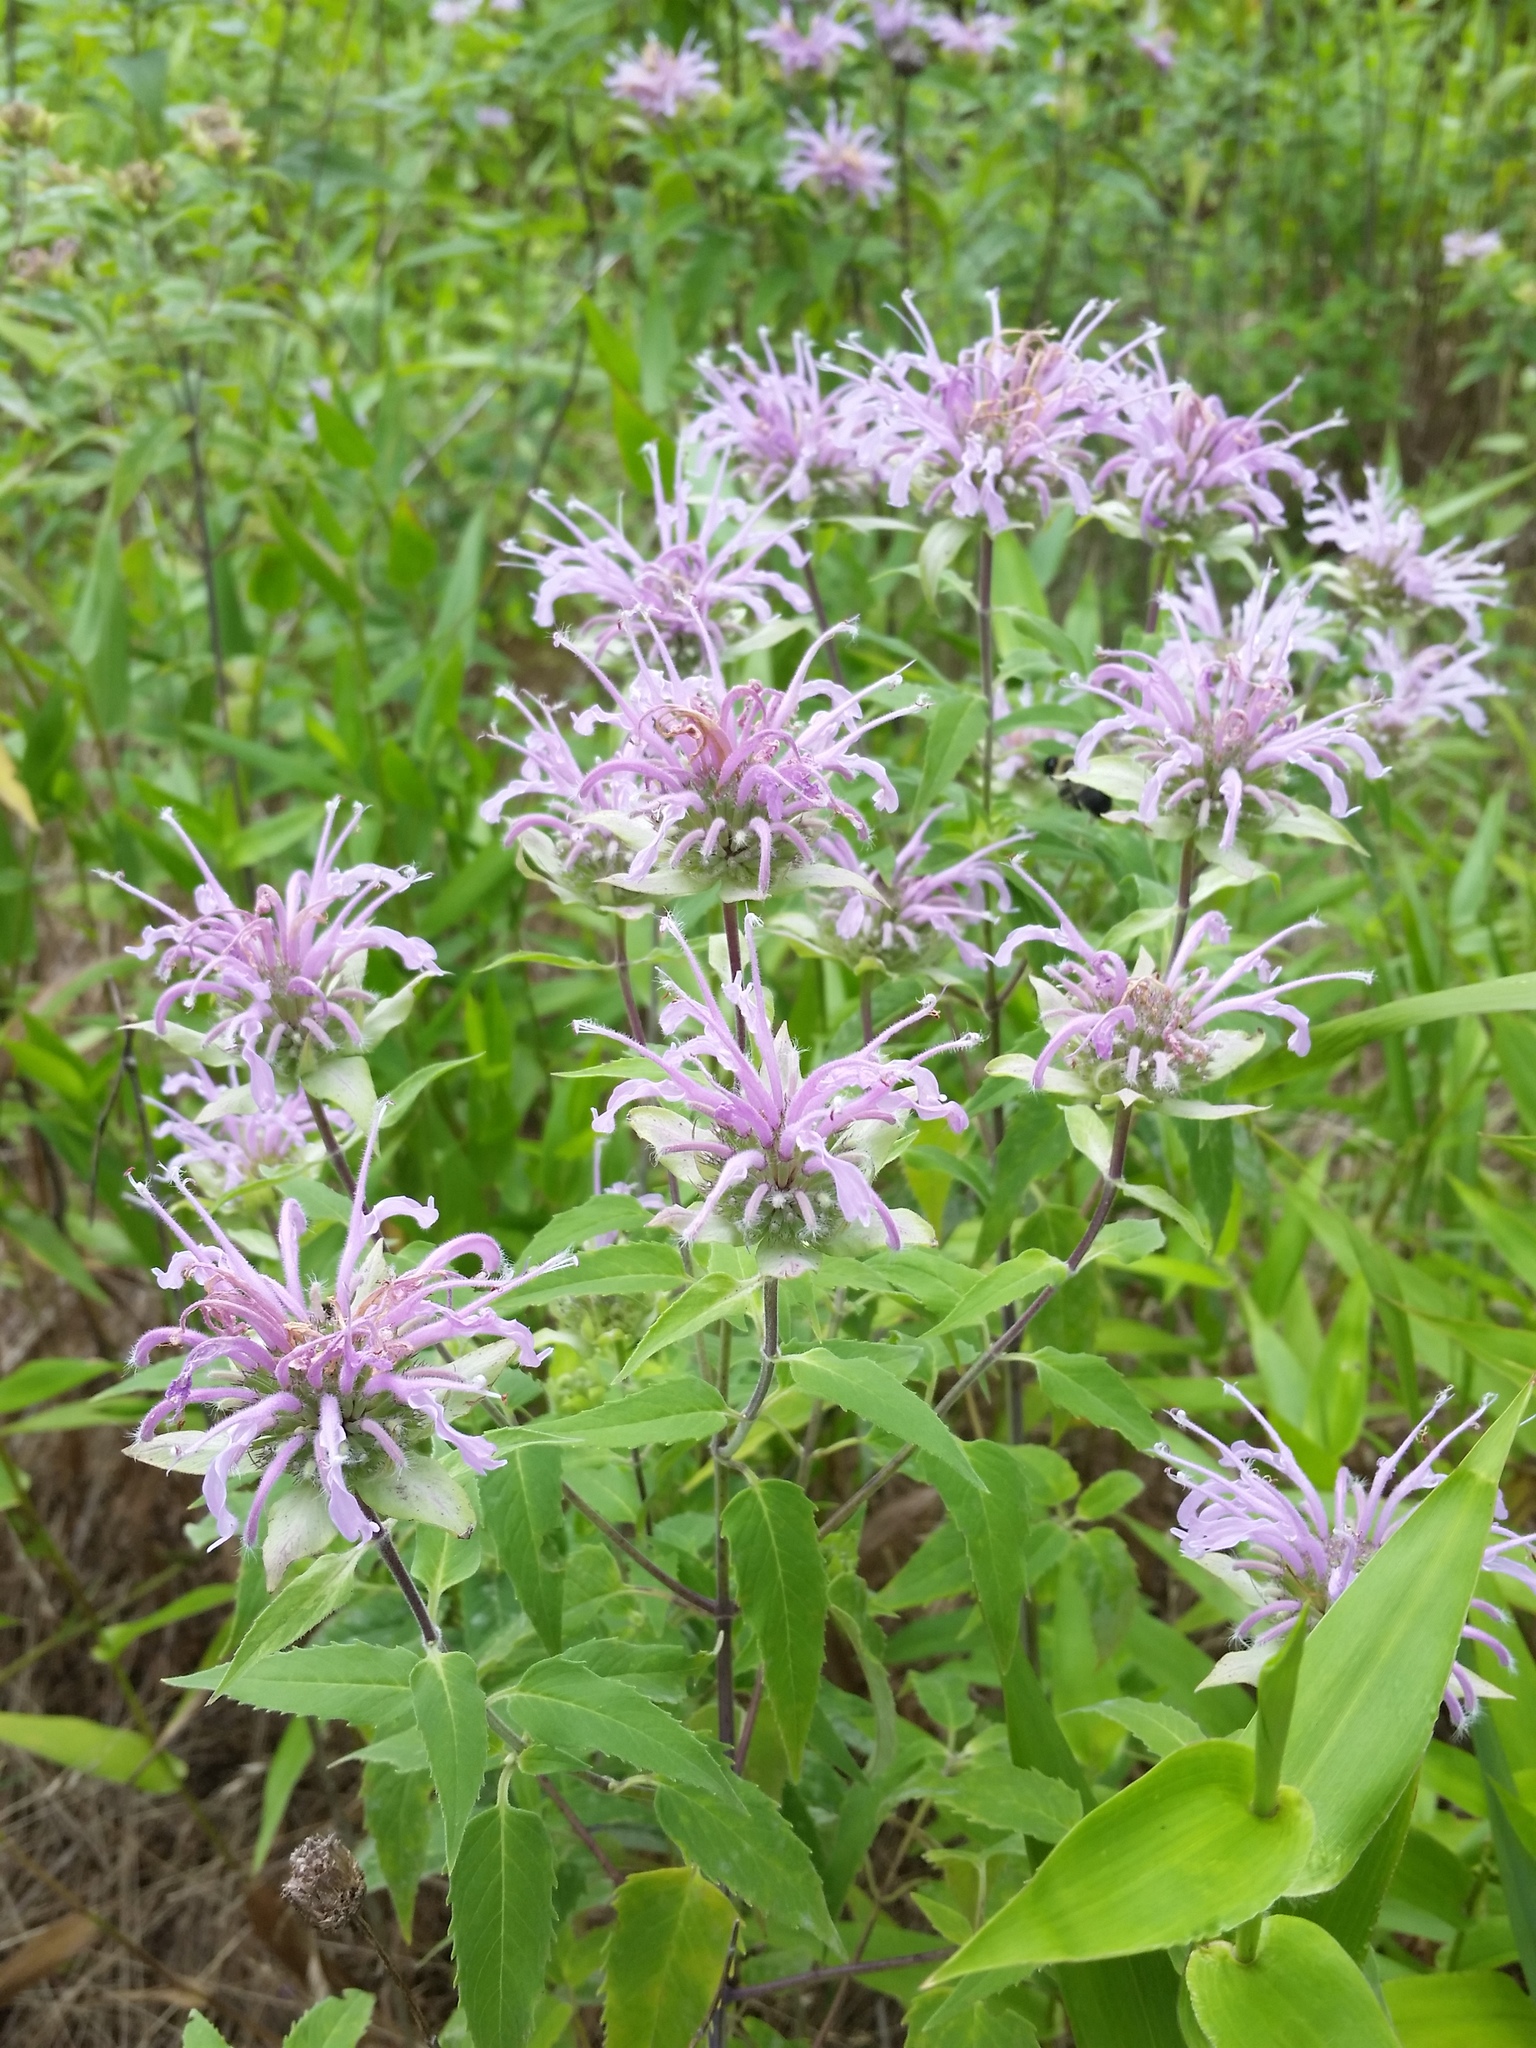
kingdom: Plantae
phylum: Tracheophyta
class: Magnoliopsida
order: Lamiales
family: Lamiaceae
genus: Monarda
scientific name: Monarda fistulosa
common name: Purple beebalm
